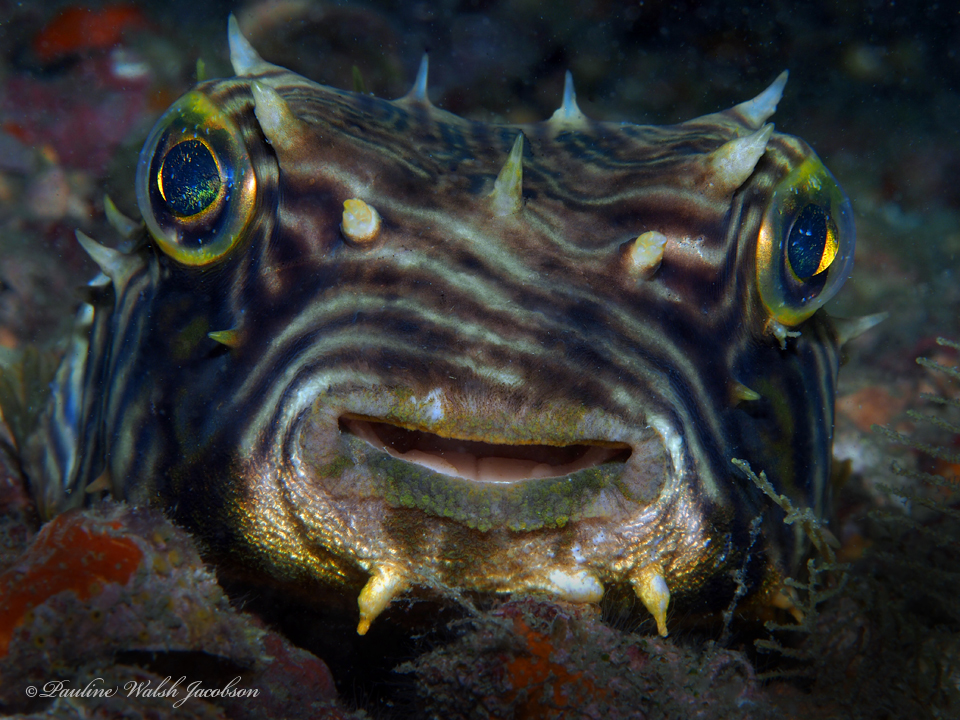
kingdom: Animalia
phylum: Chordata
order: Tetraodontiformes
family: Diodontidae
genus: Chilomycterus
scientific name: Chilomycterus schoepfii
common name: Striped burrfish
